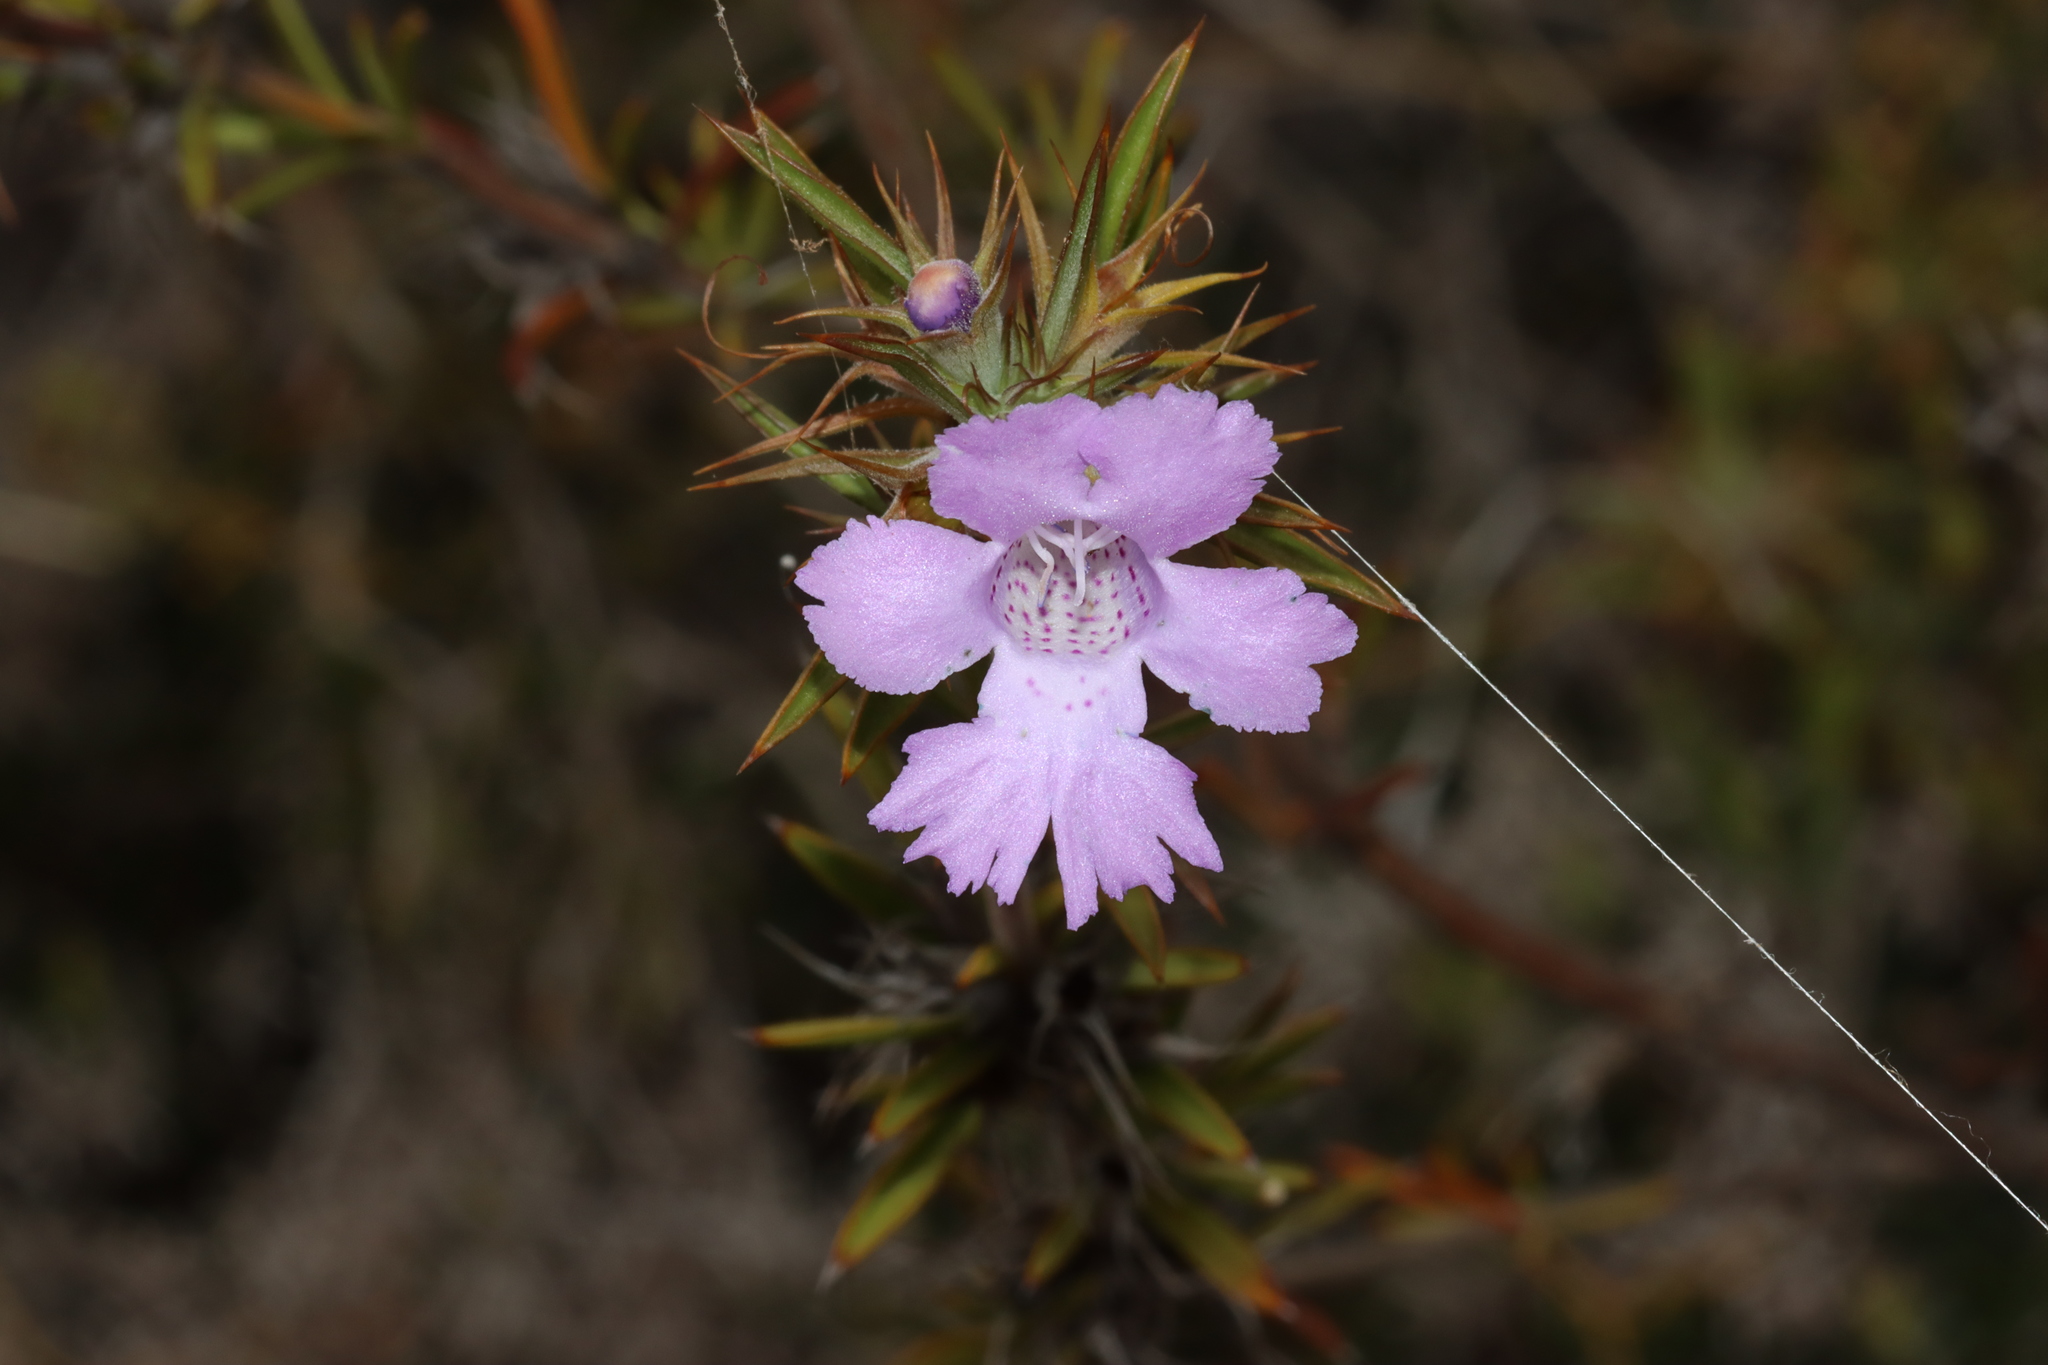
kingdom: Plantae
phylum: Tracheophyta
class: Magnoliopsida
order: Lamiales
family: Lamiaceae
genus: Hemiandra
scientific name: Hemiandra pungens
